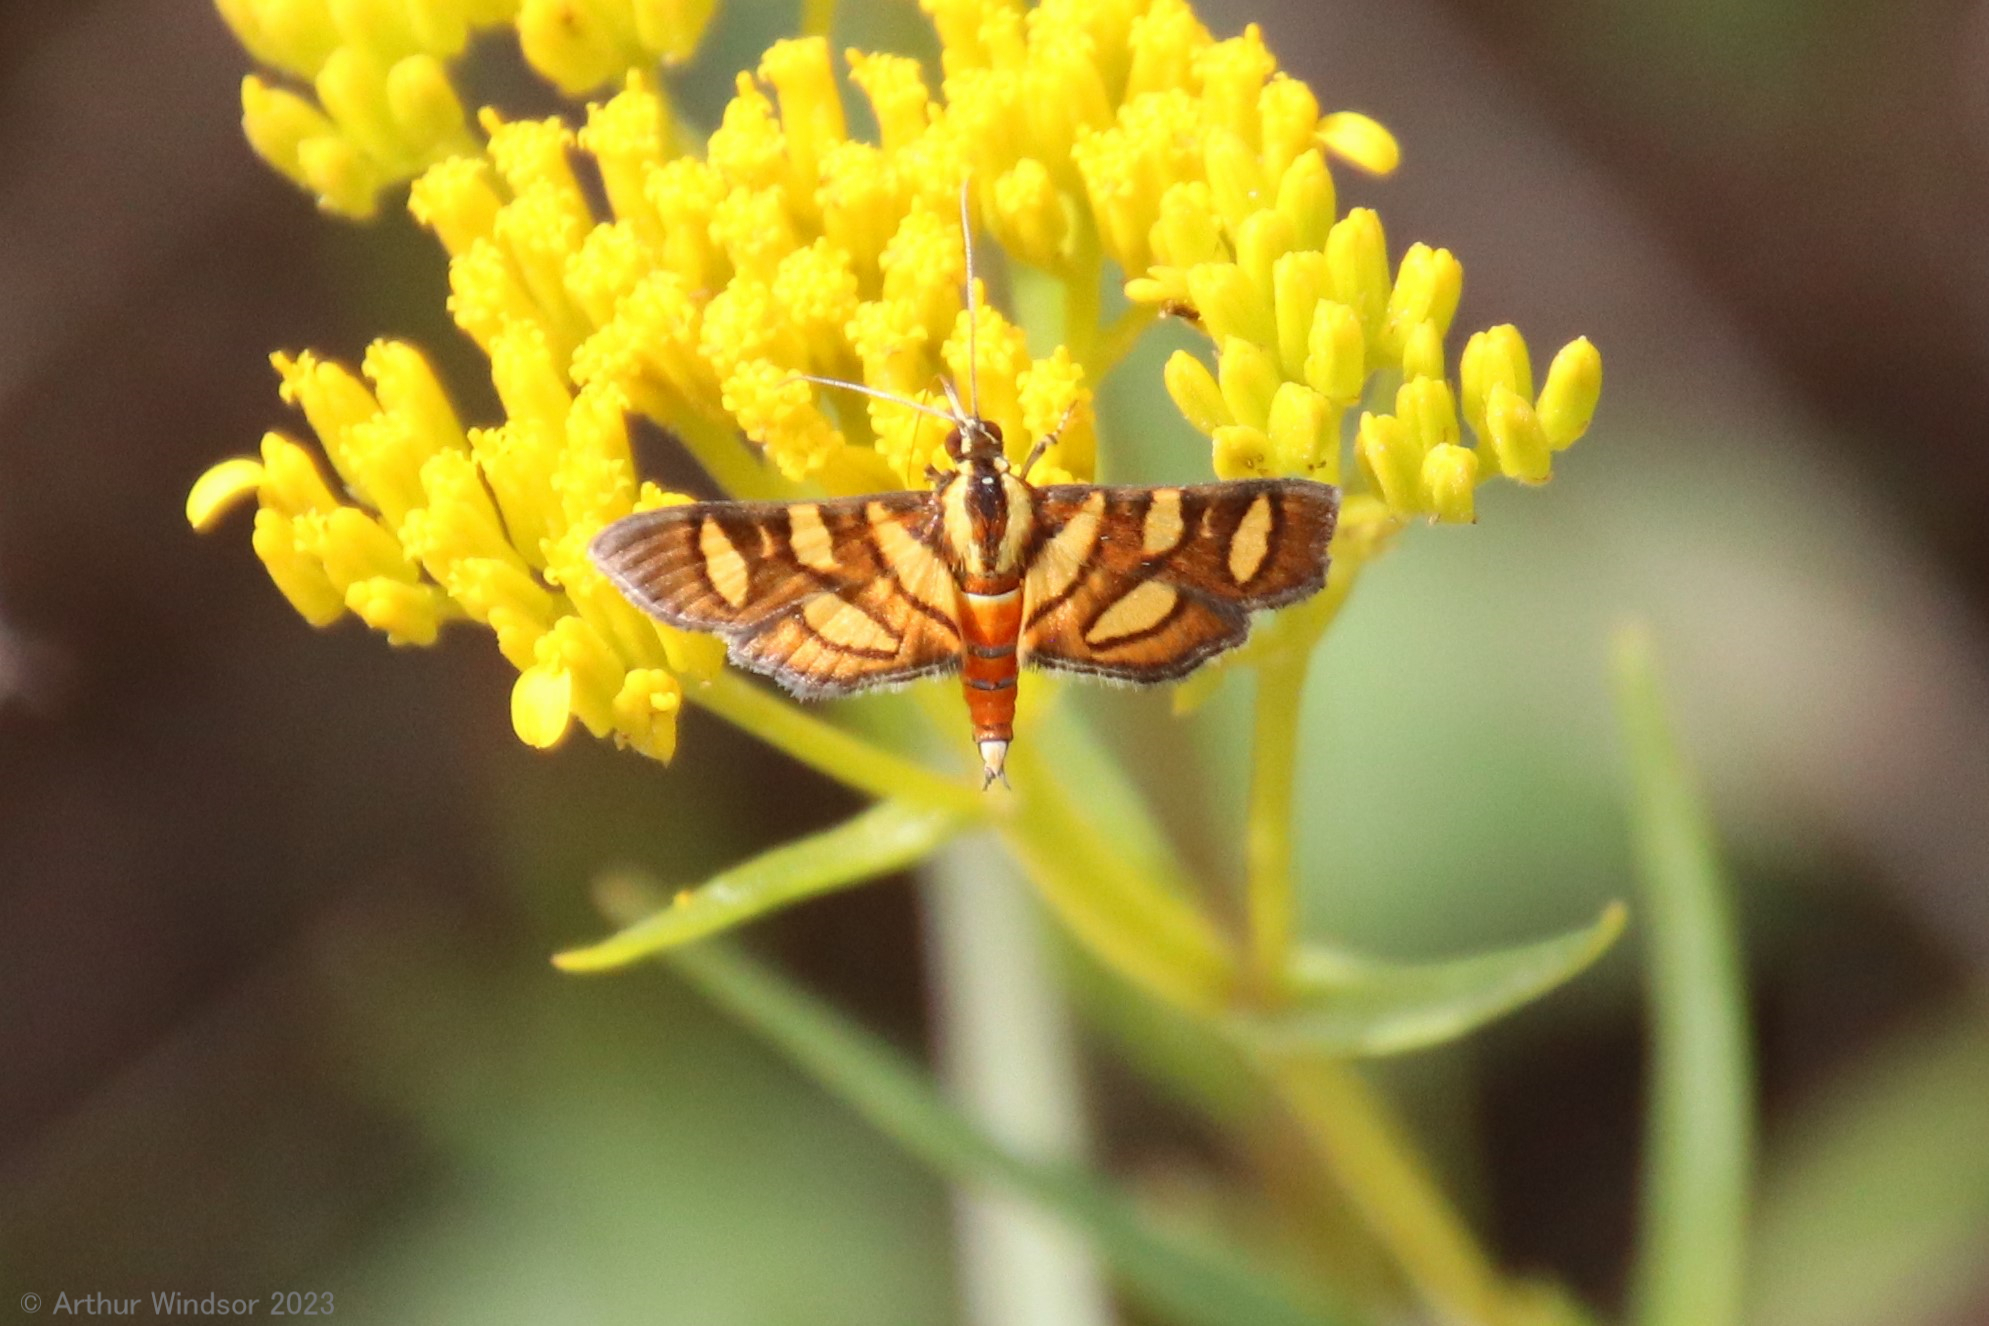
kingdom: Animalia
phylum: Arthropoda
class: Insecta
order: Lepidoptera
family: Crambidae
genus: Syngamia
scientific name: Syngamia florella
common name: Orange-spotted flower moth
